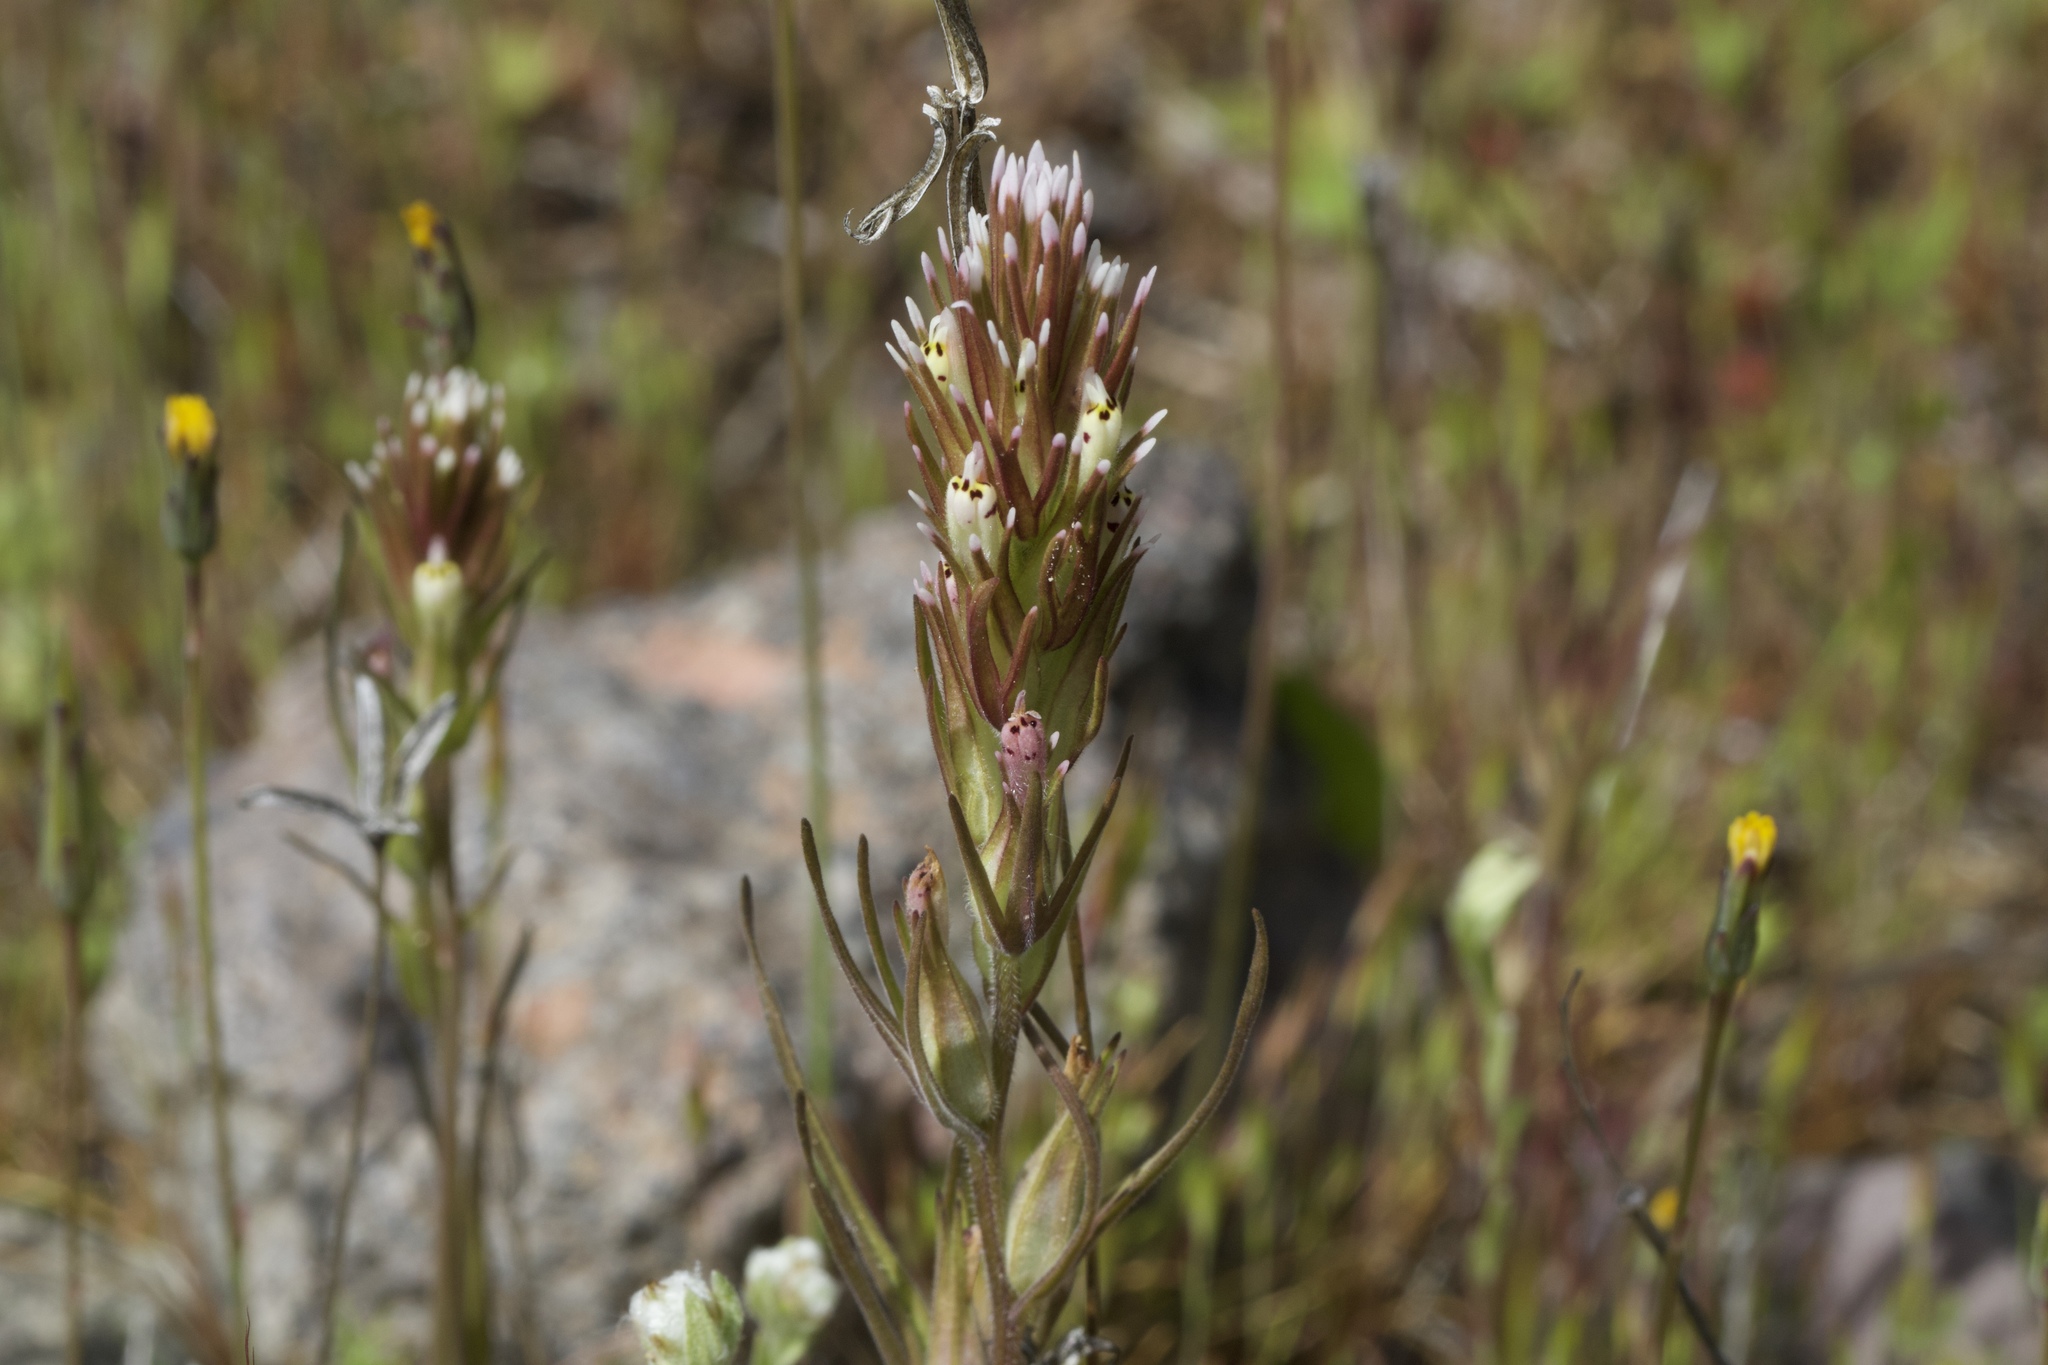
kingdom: Plantae
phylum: Tracheophyta
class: Magnoliopsida
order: Lamiales
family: Orobanchaceae
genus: Castilleja
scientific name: Castilleja attenuata
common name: Valley tassels
